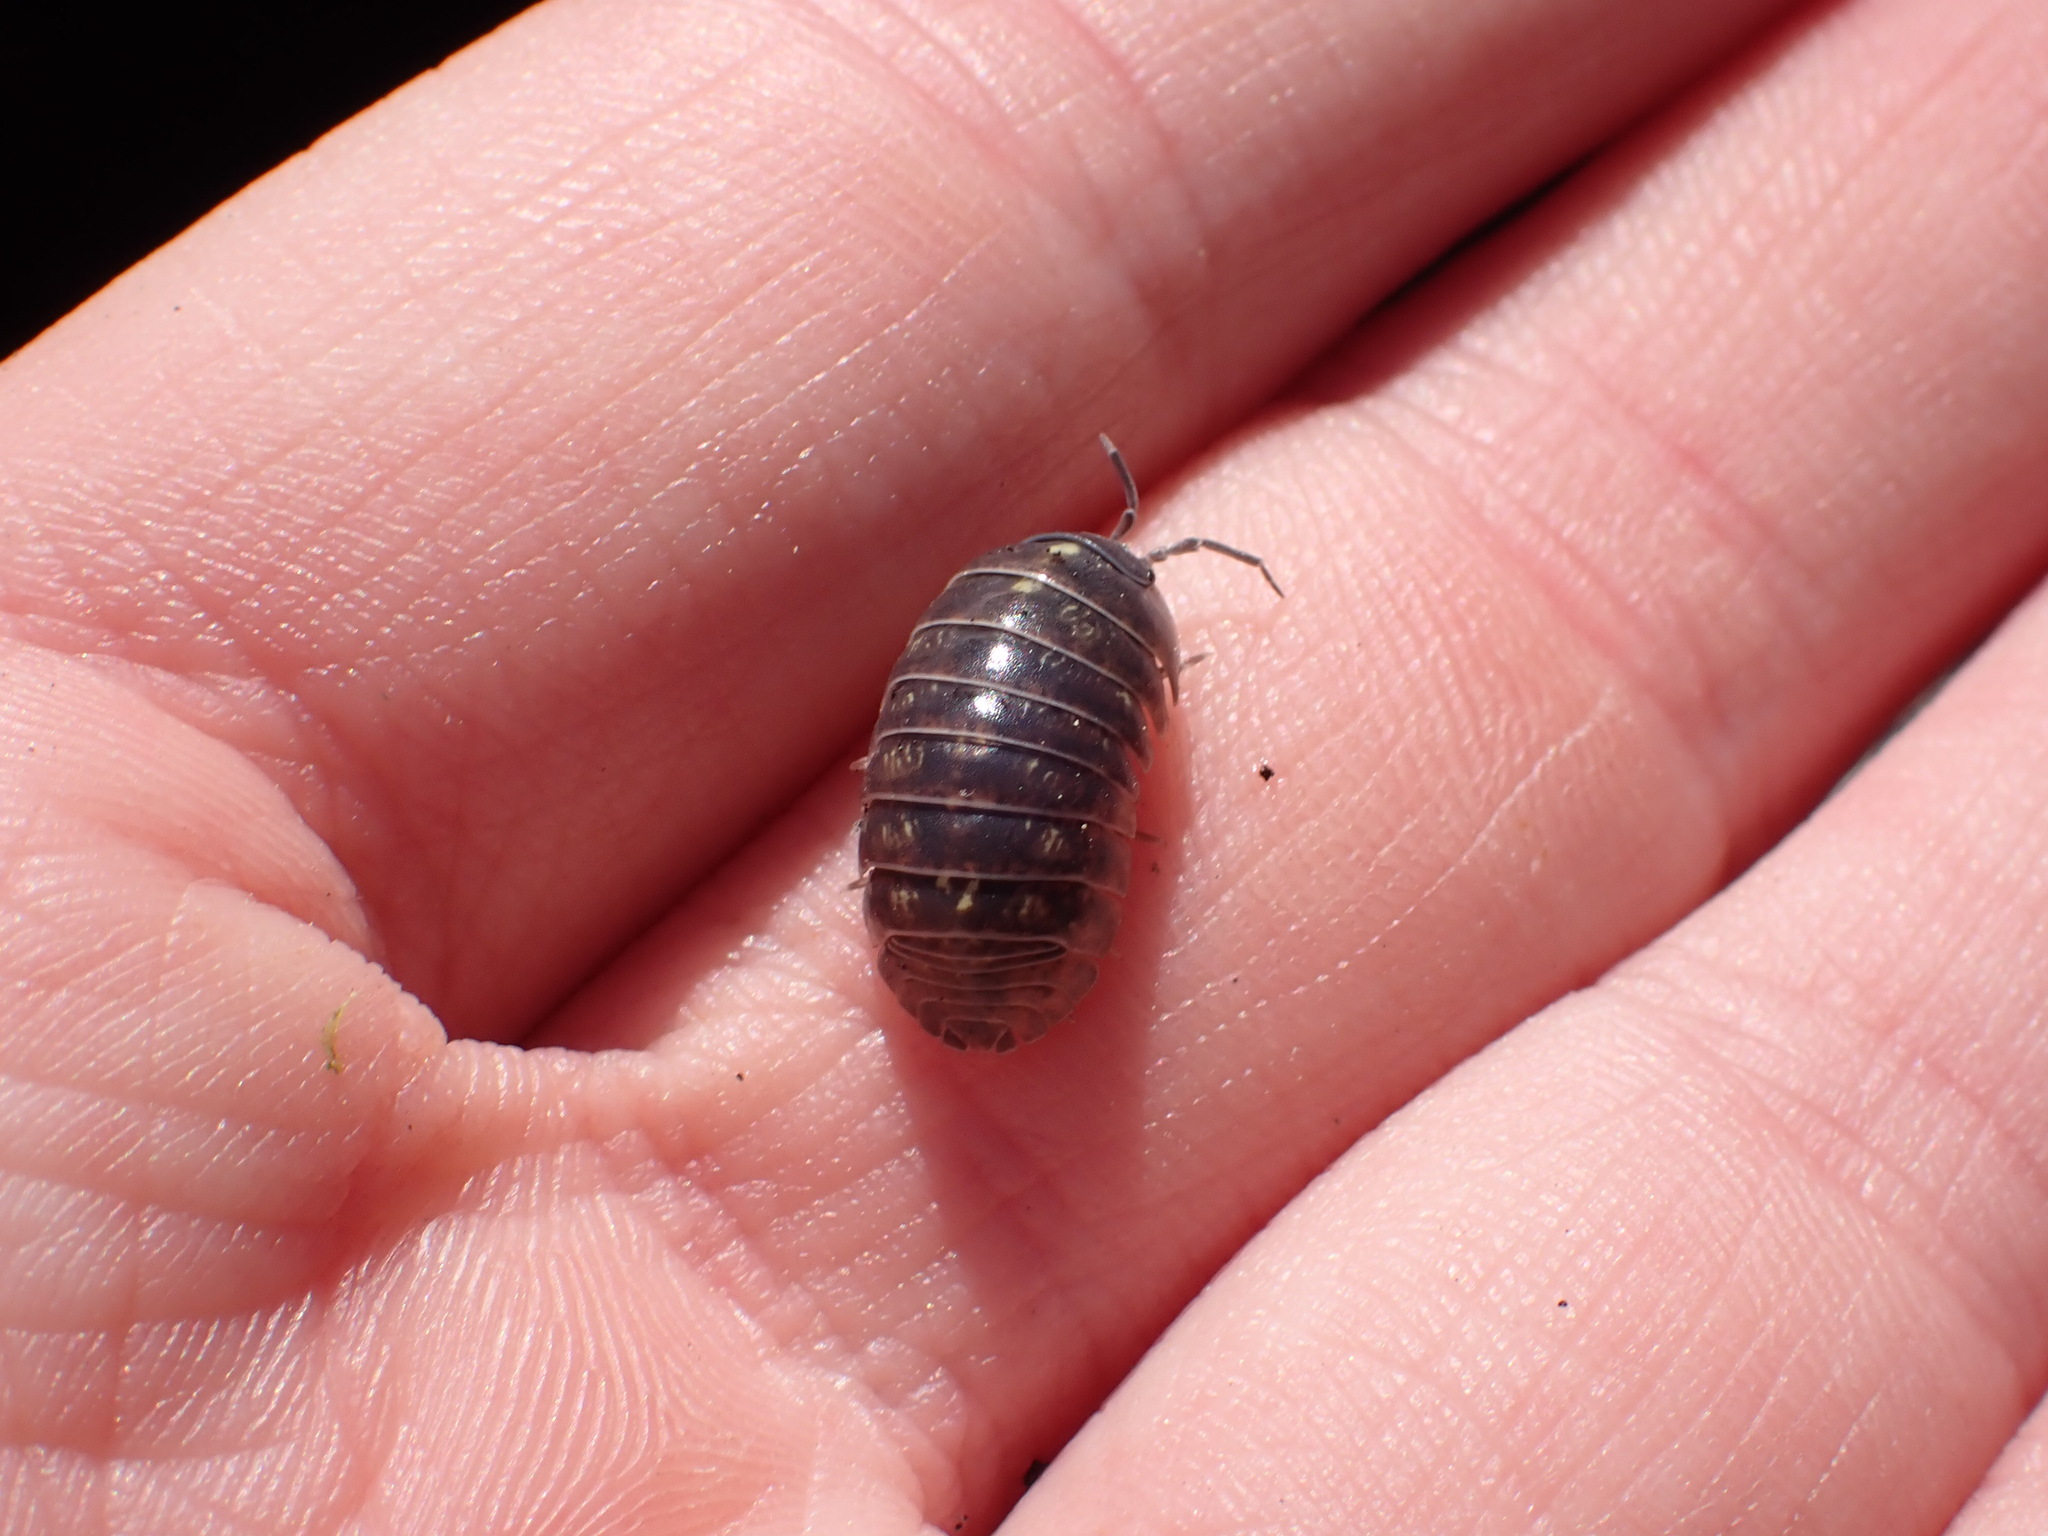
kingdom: Animalia
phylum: Arthropoda
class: Malacostraca
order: Isopoda
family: Armadillidiidae
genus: Armadillidium
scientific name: Armadillidium vulgare
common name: Common pill woodlouse
